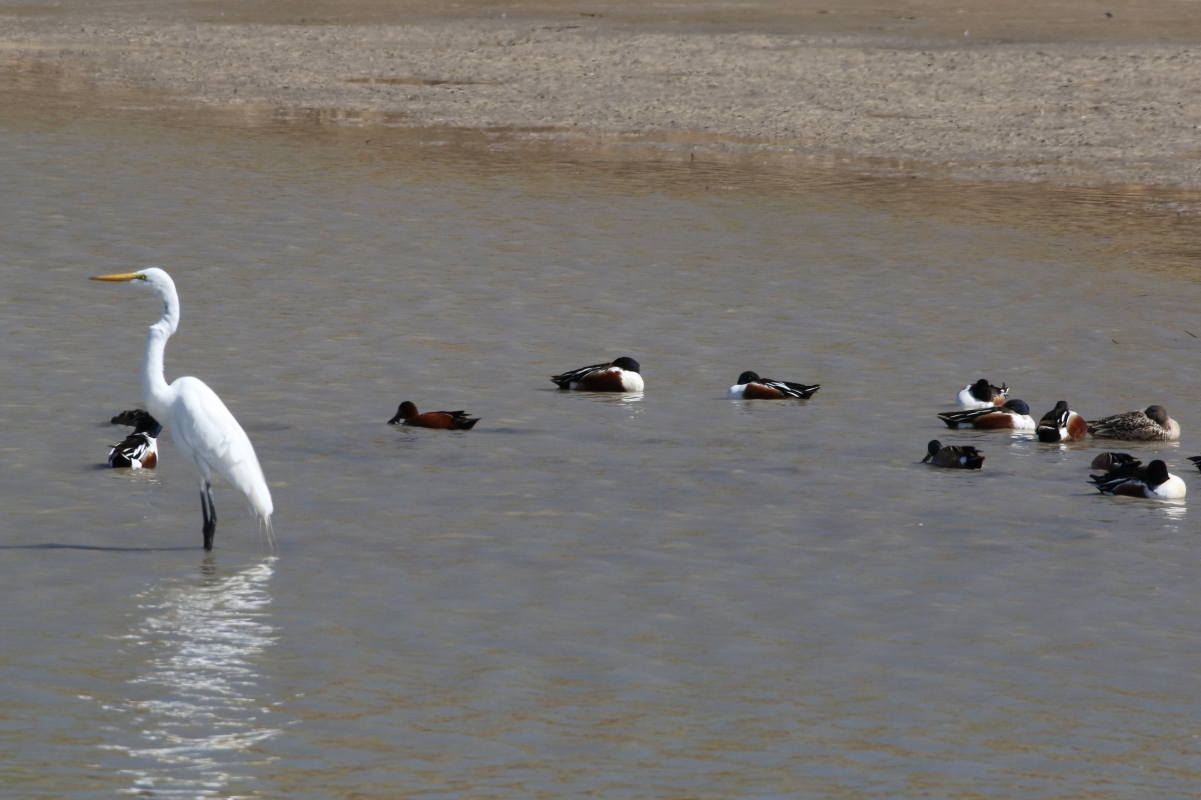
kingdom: Animalia
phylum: Chordata
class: Aves
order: Pelecaniformes
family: Ardeidae
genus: Ardea
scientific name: Ardea alba
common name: Great egret
